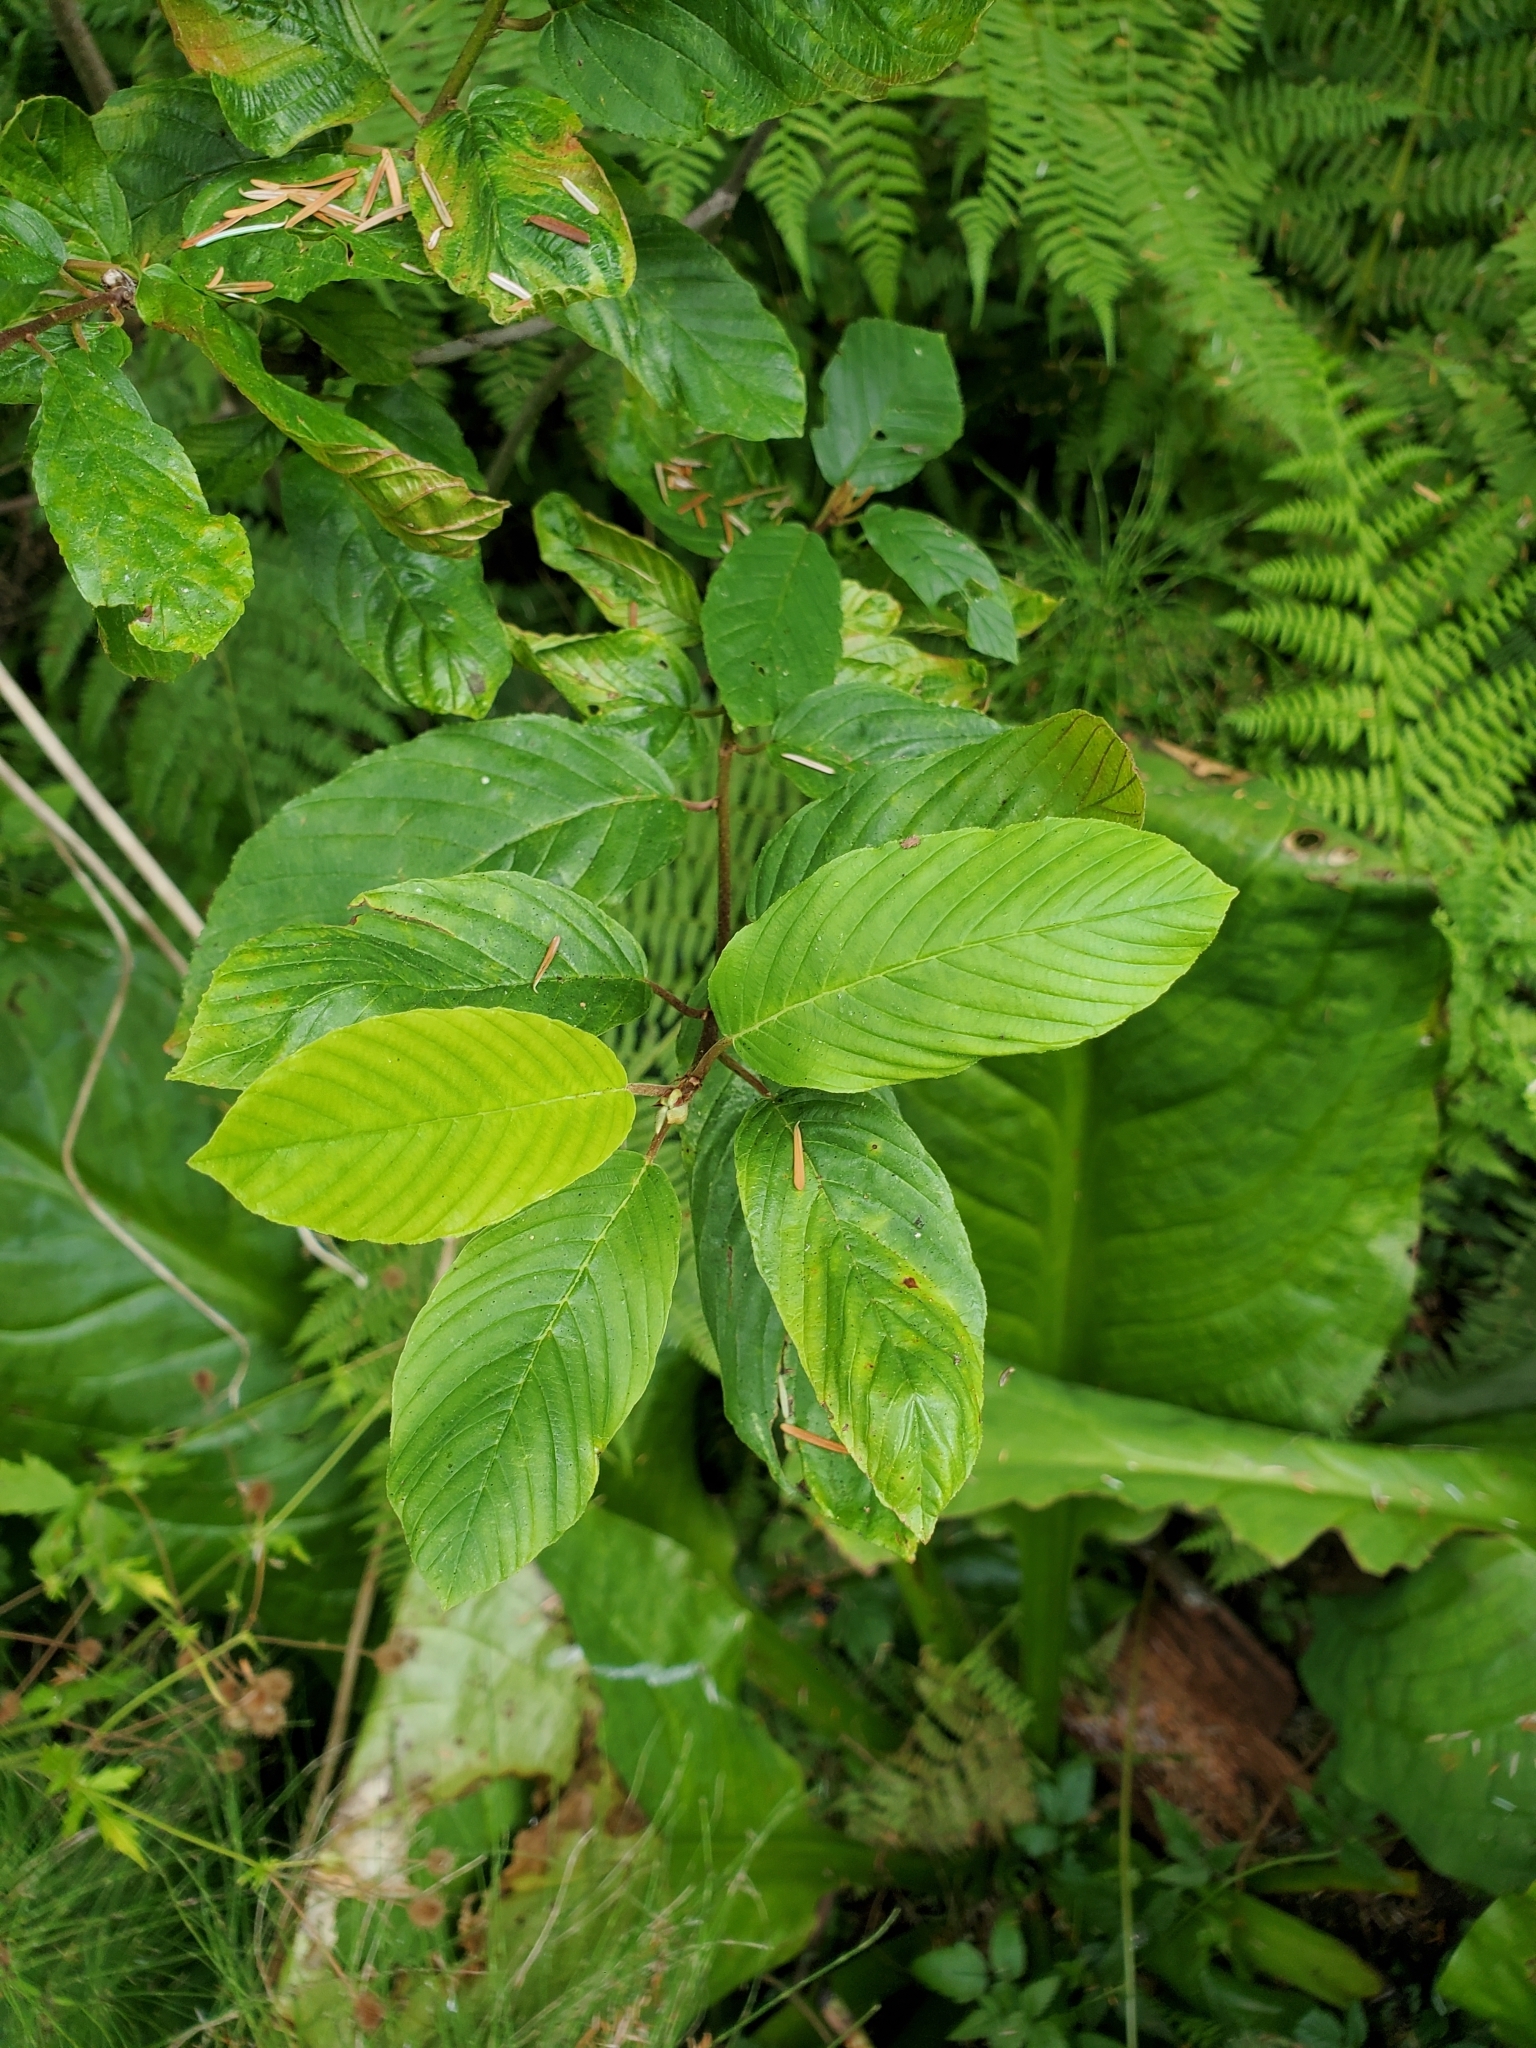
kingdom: Plantae
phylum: Tracheophyta
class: Magnoliopsida
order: Rosales
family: Rhamnaceae
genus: Frangula
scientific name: Frangula purshiana
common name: Cascara buckthorn
